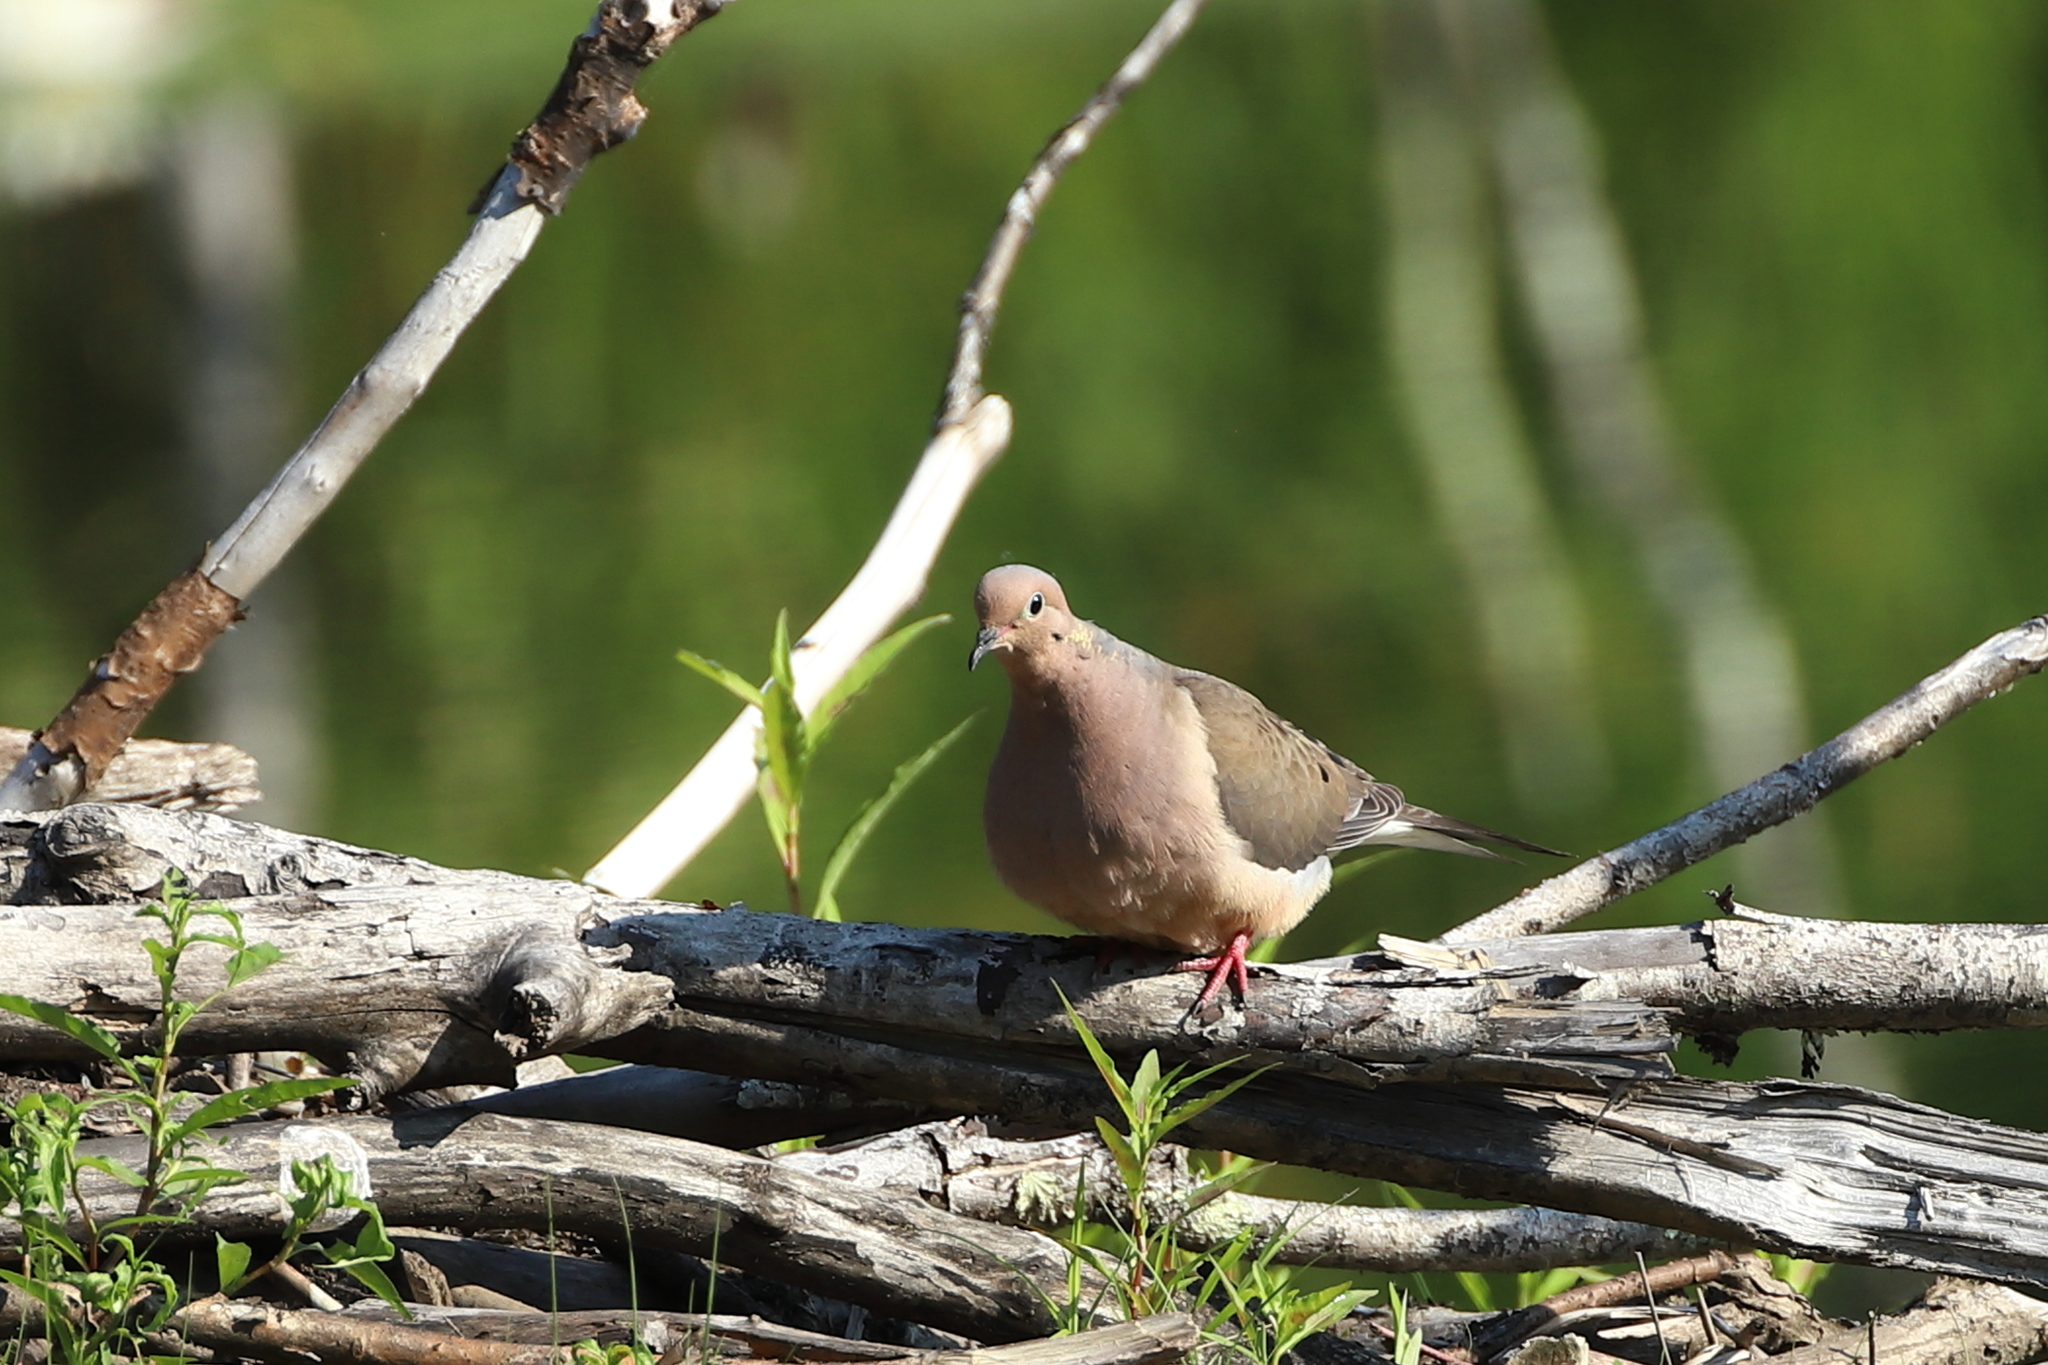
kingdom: Animalia
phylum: Chordata
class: Aves
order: Columbiformes
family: Columbidae
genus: Zenaida
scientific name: Zenaida macroura
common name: Mourning dove
